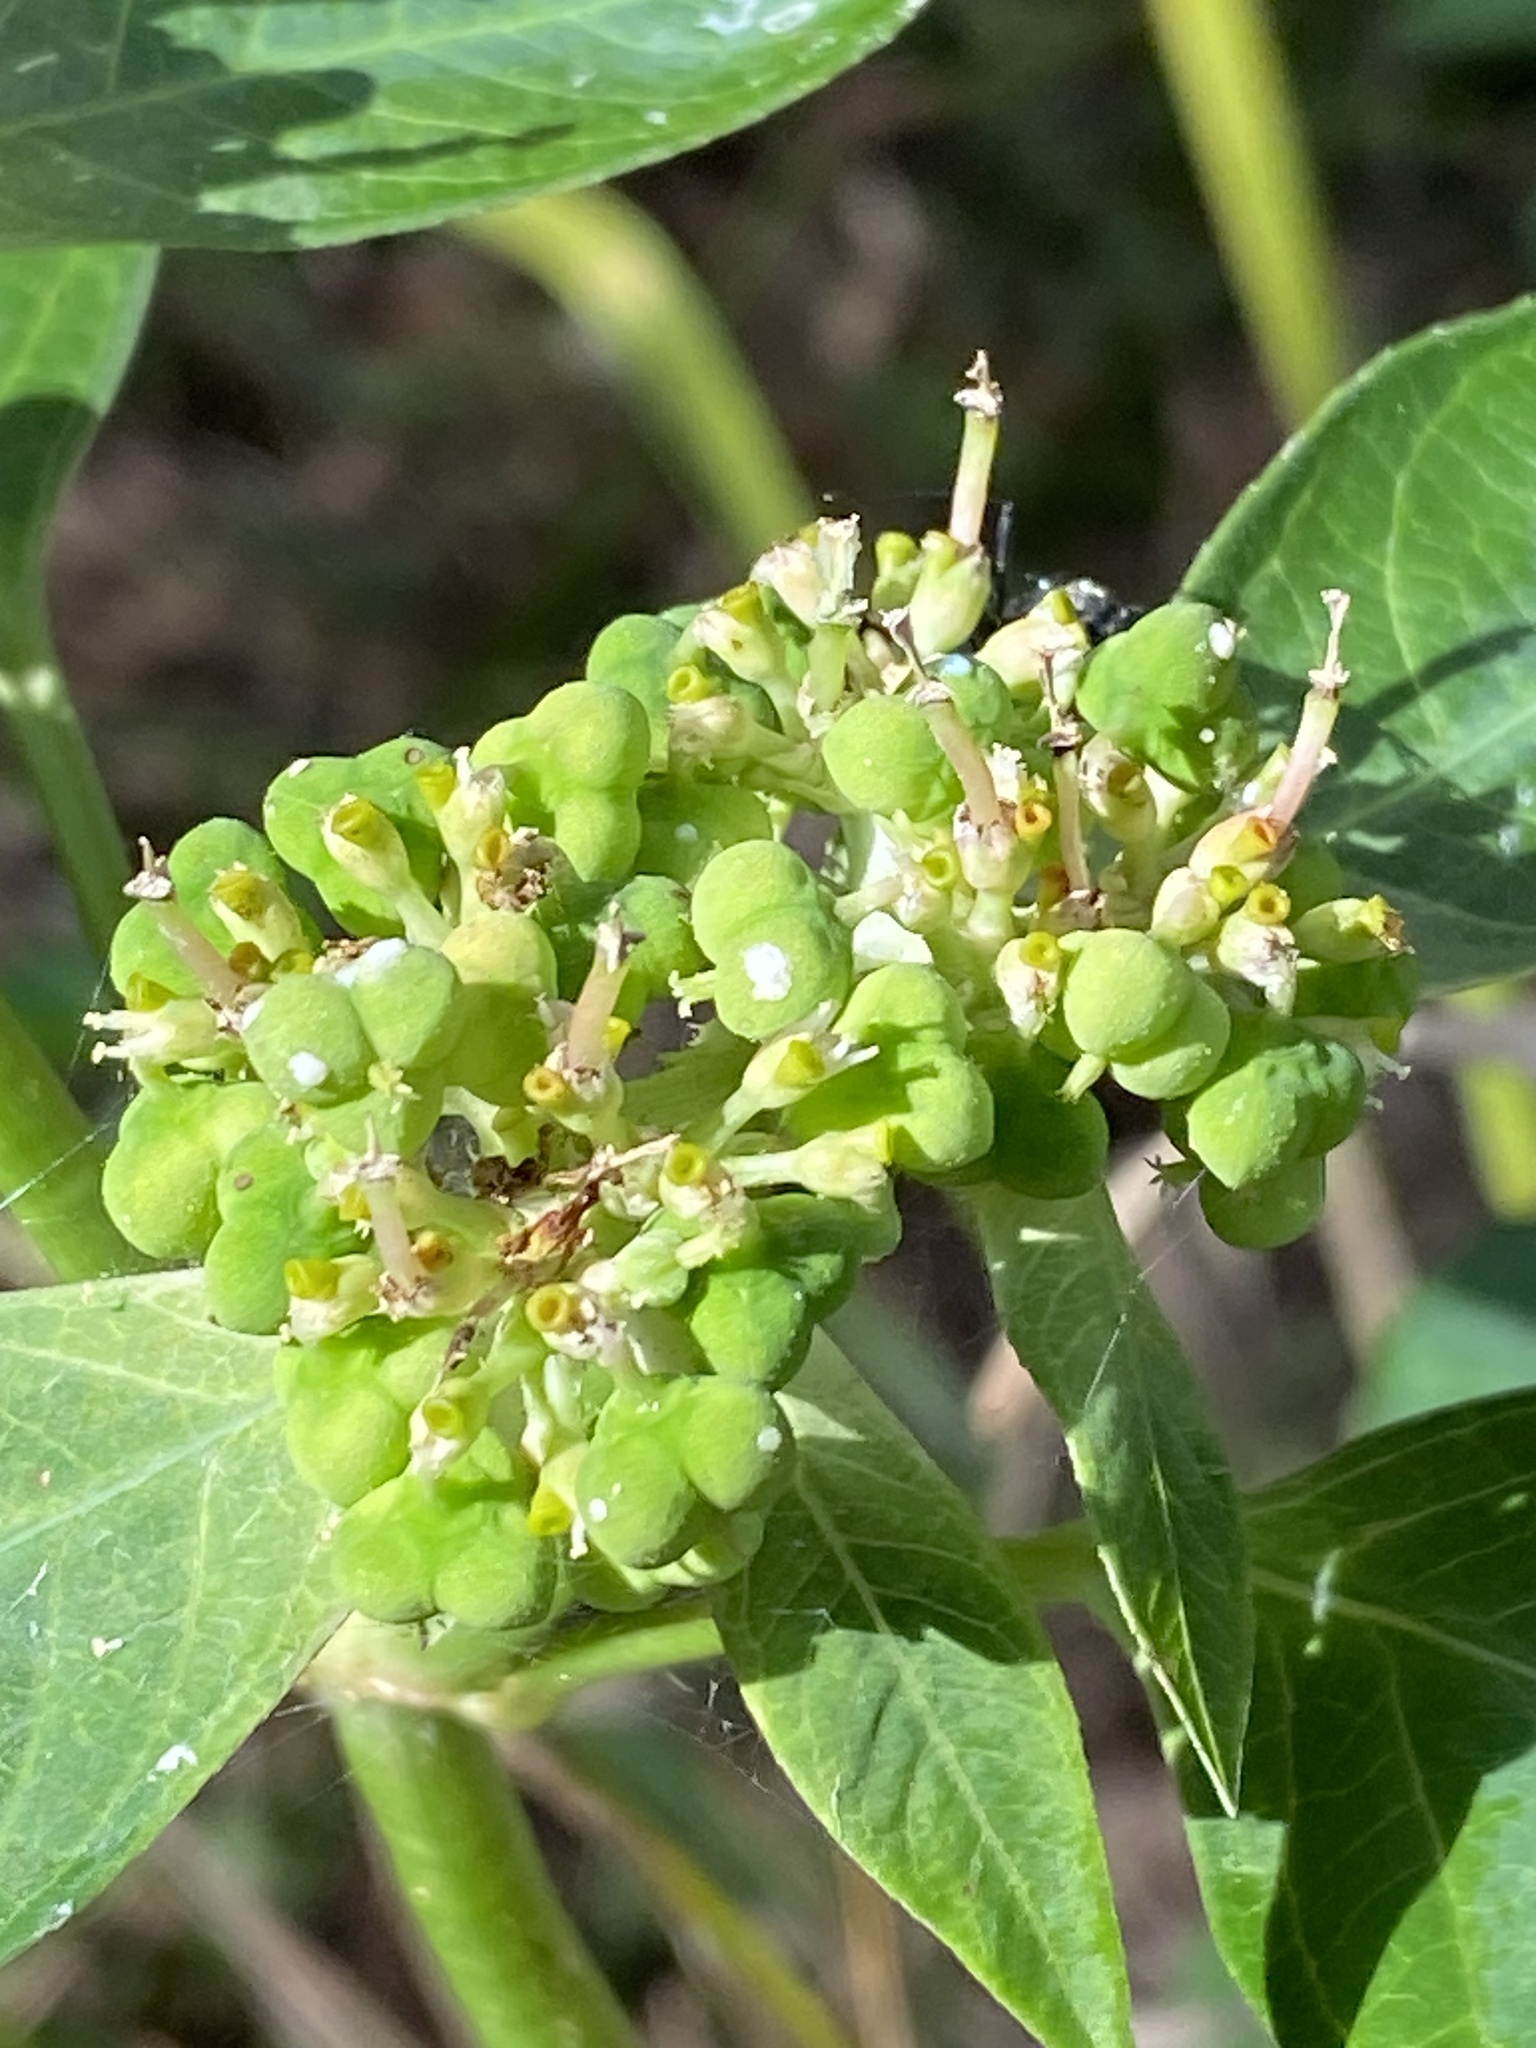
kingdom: Plantae
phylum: Tracheophyta
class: Magnoliopsida
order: Malpighiales
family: Euphorbiaceae
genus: Euphorbia
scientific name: Euphorbia heterophylla
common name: Mexican fireplant
